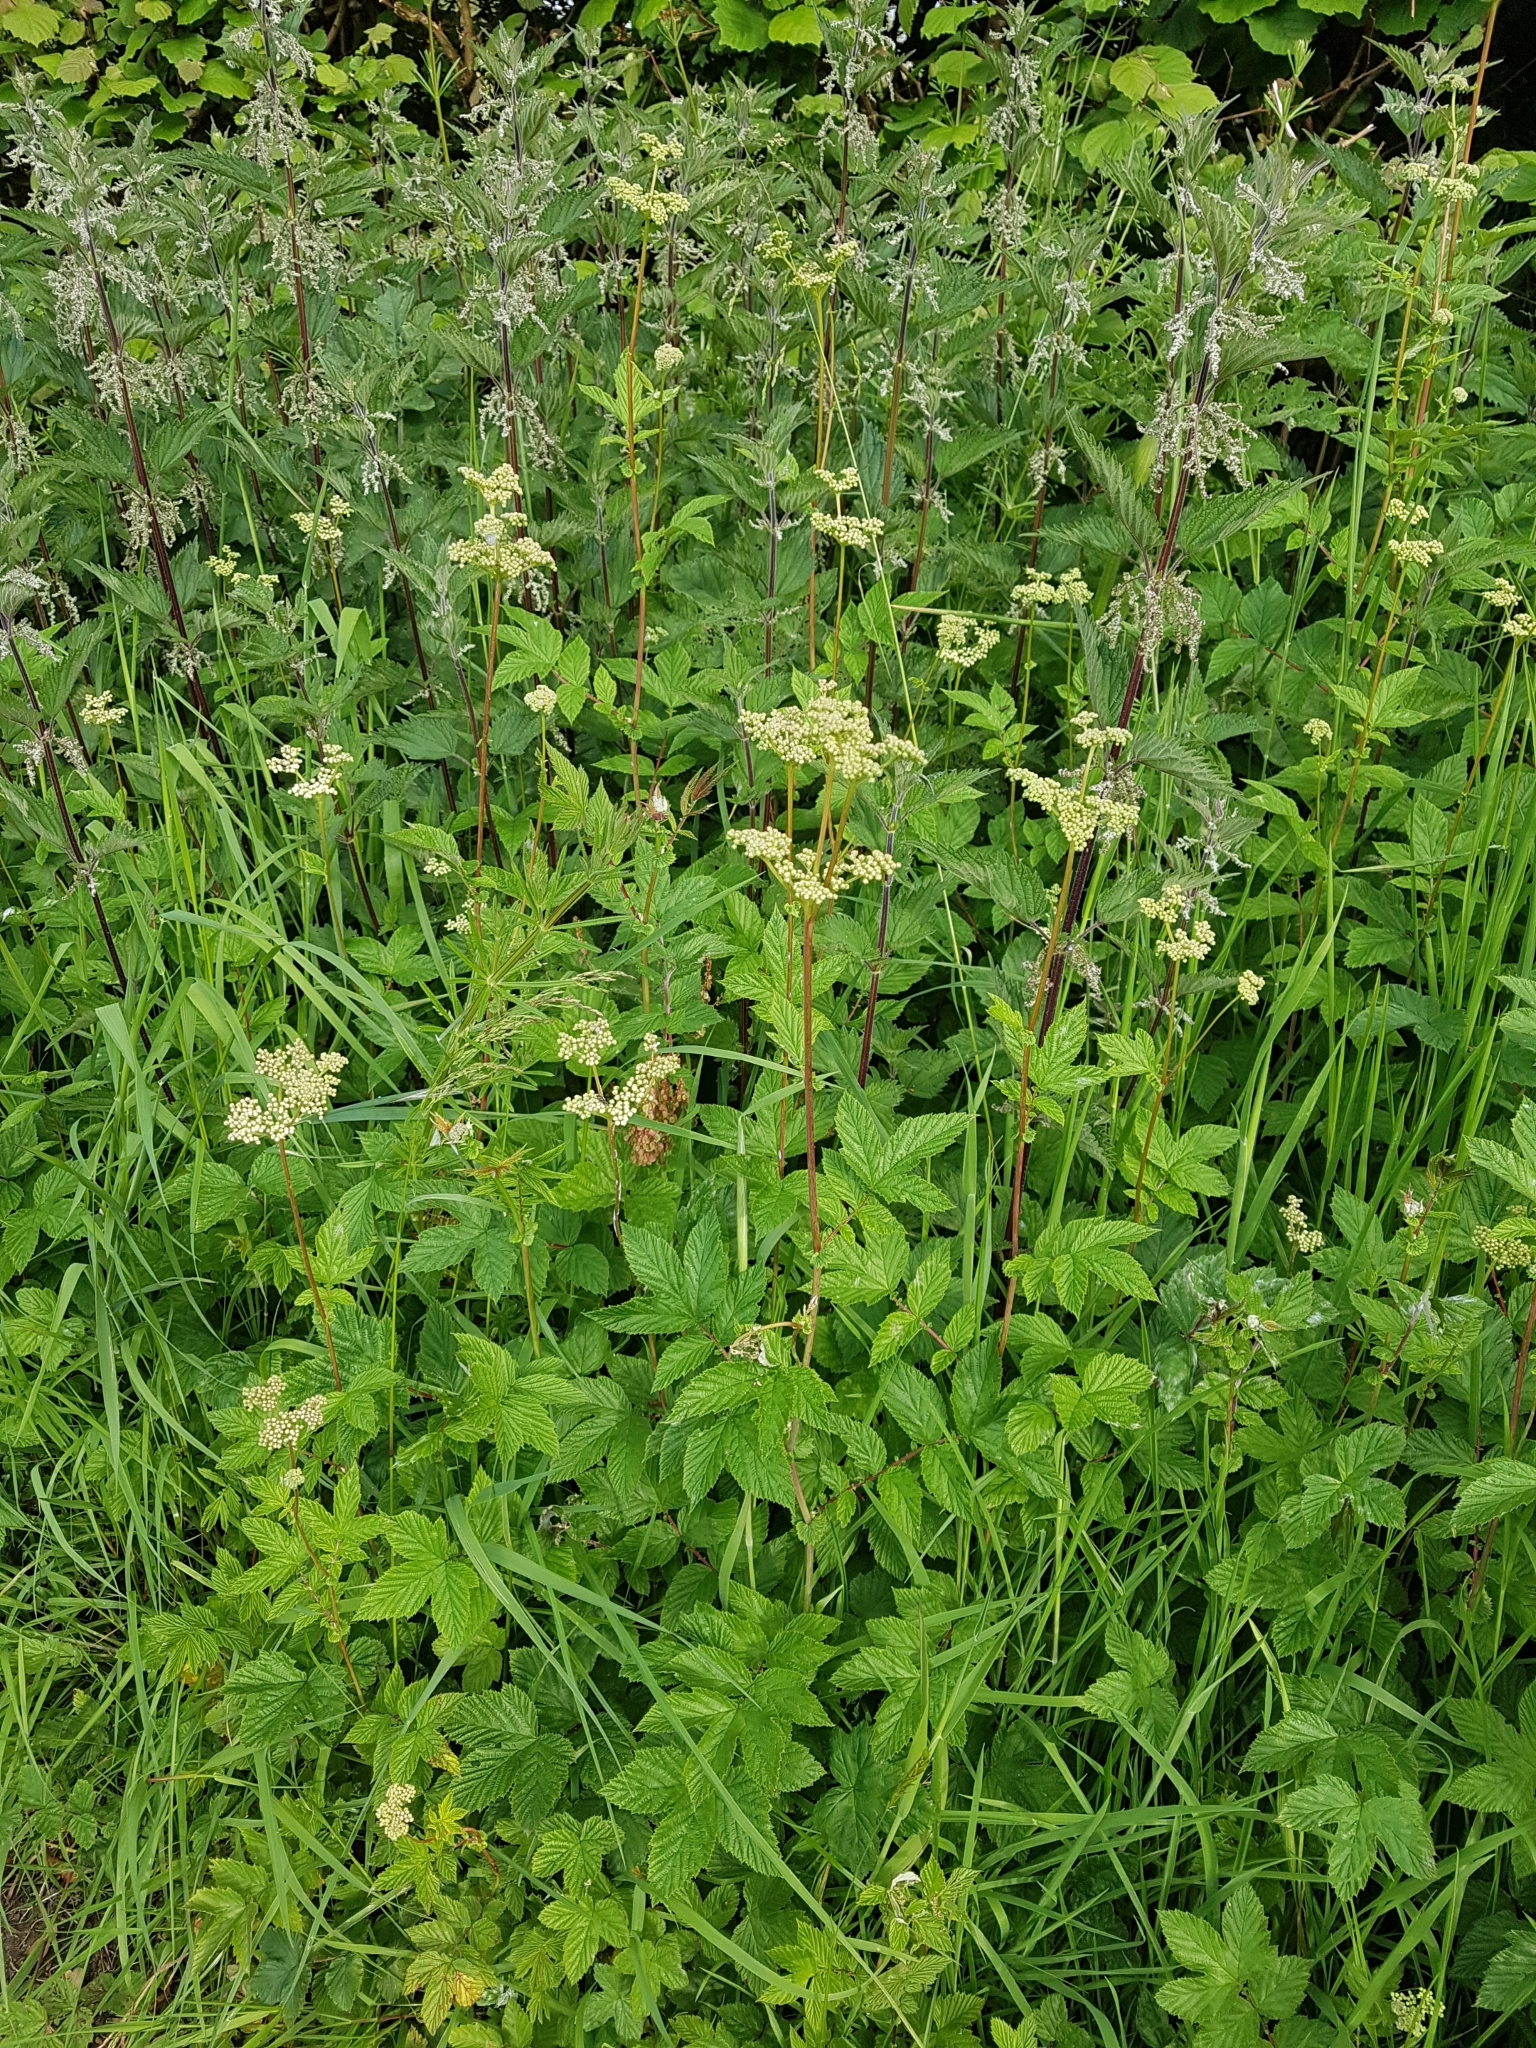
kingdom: Plantae
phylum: Tracheophyta
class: Magnoliopsida
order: Rosales
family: Rosaceae
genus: Filipendula
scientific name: Filipendula ulmaria
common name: Meadowsweet
